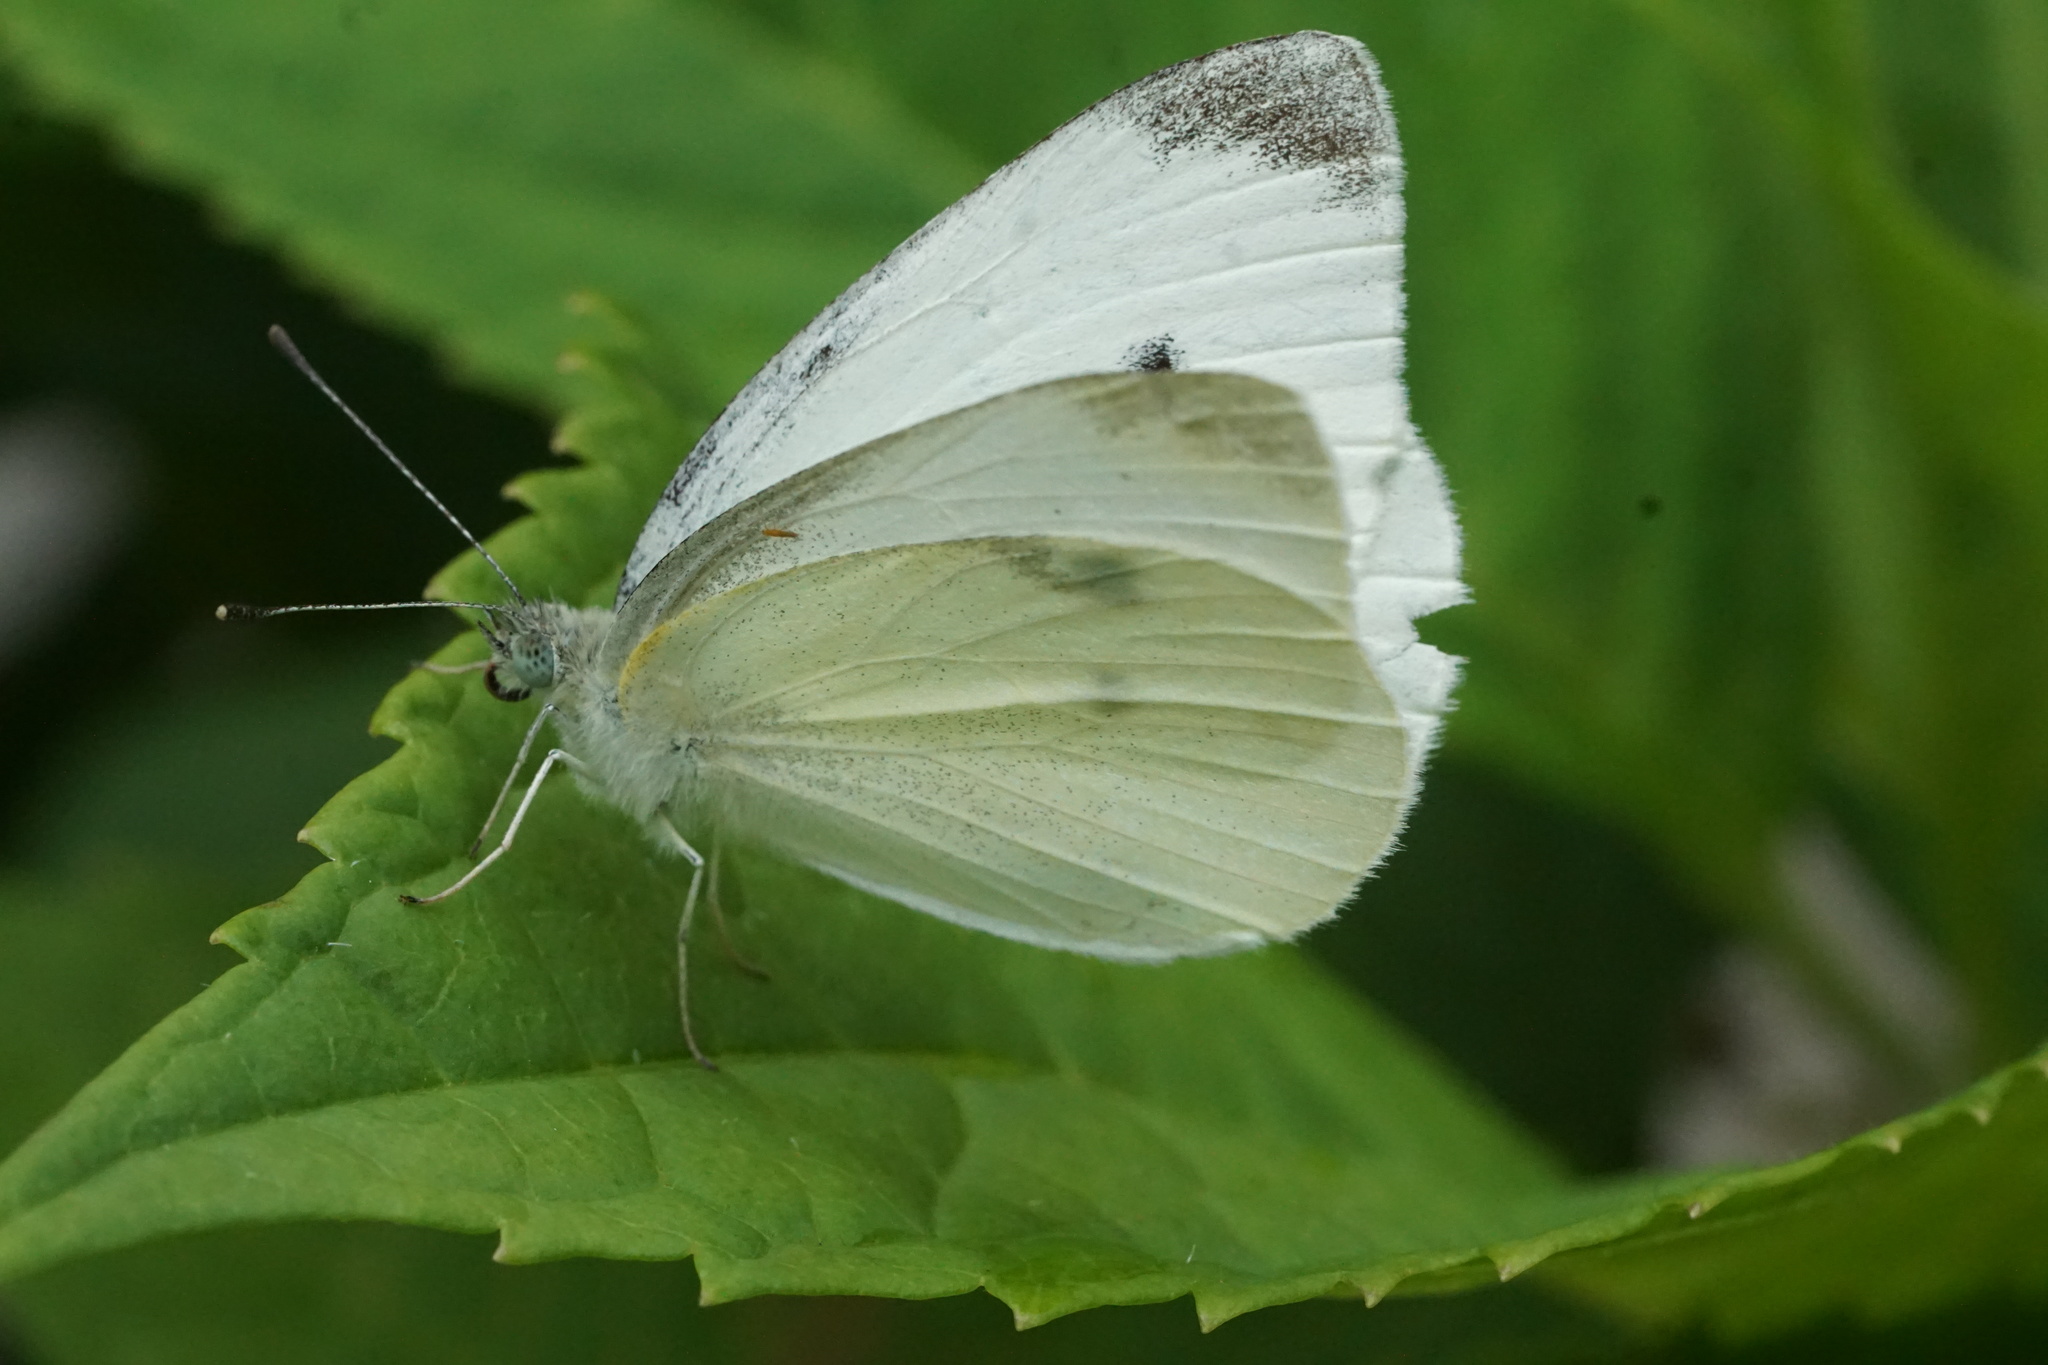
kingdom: Animalia
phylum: Arthropoda
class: Insecta
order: Lepidoptera
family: Pieridae
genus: Pieris
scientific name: Pieris rapae
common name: Small white
